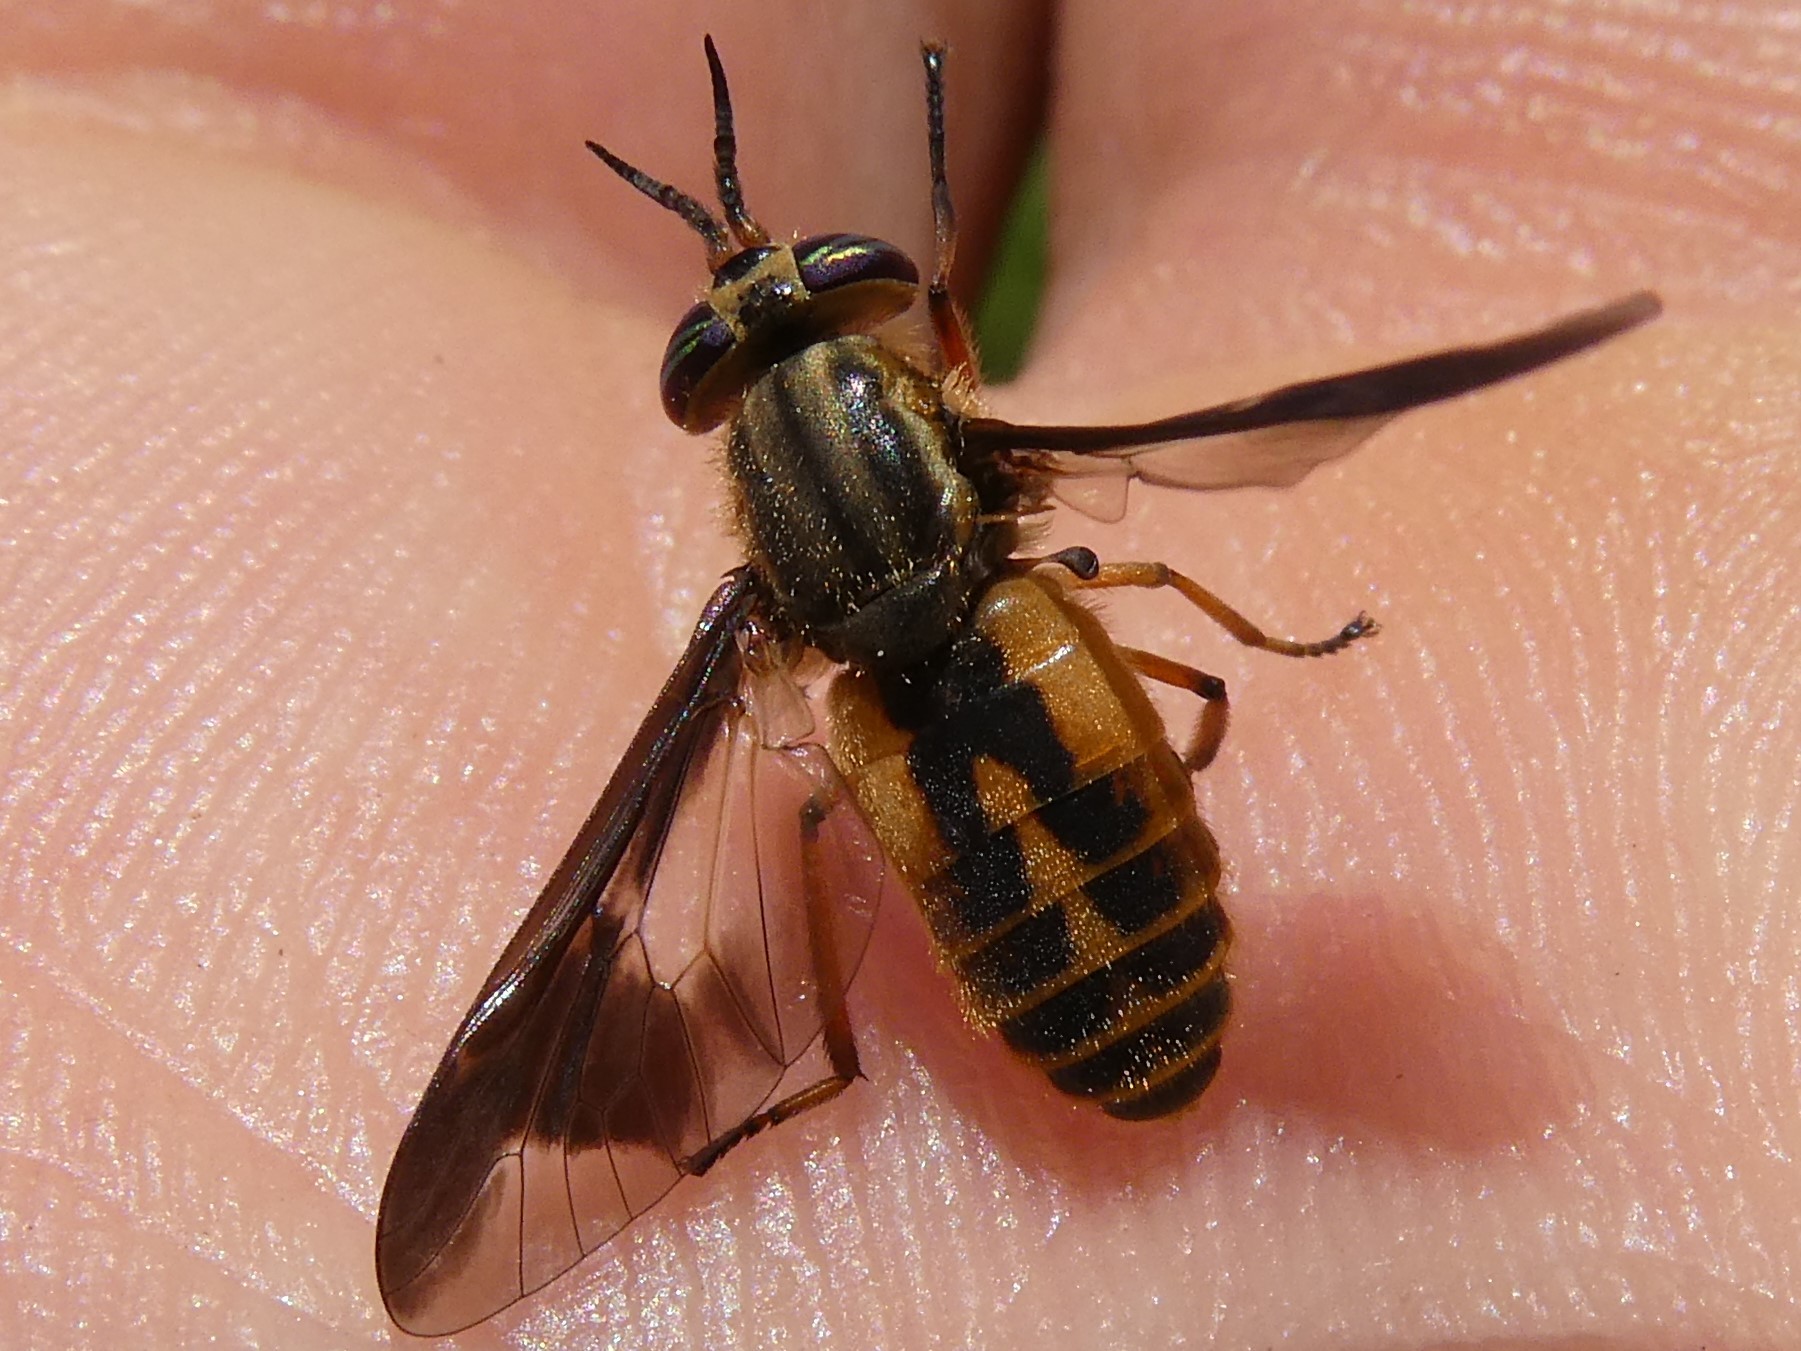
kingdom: Animalia
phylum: Arthropoda
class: Insecta
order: Diptera
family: Tabanidae
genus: Chrysops
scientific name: Chrysops indus
